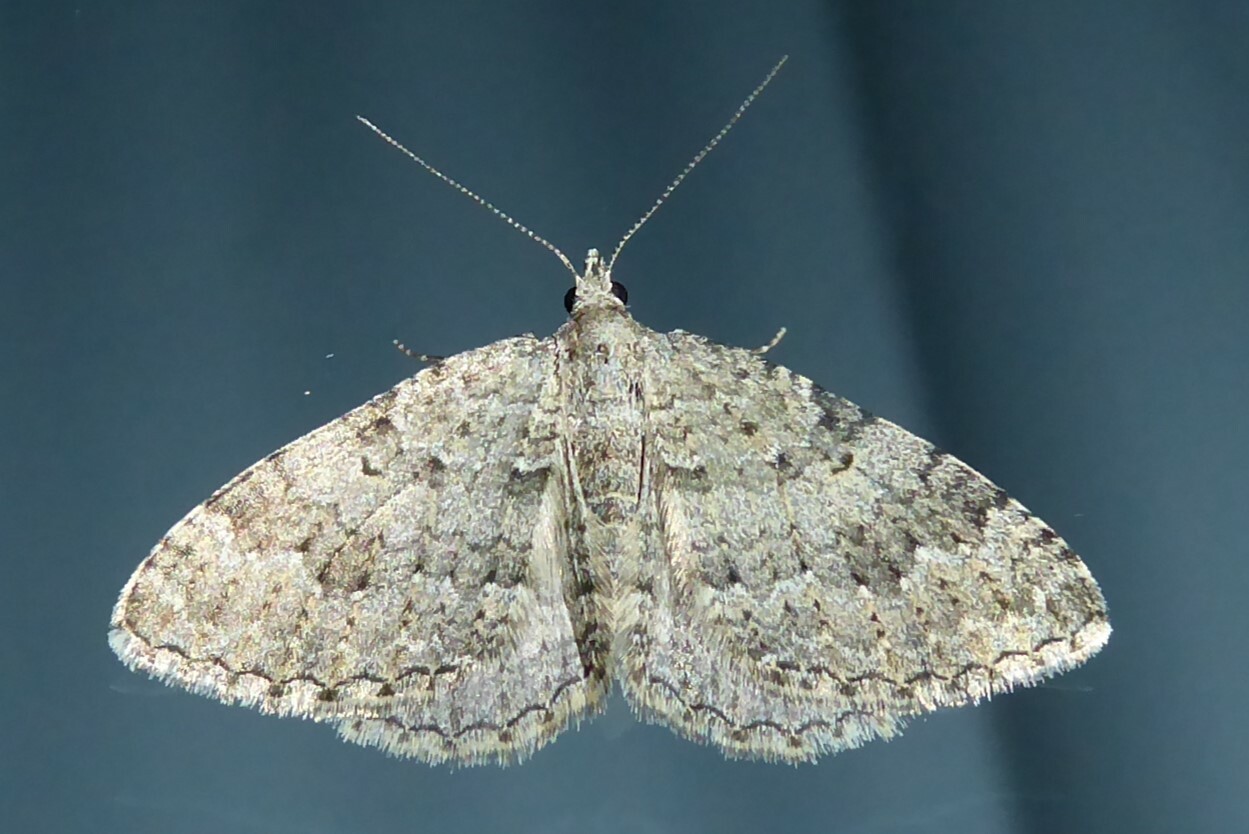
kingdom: Animalia
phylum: Arthropoda
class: Insecta
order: Lepidoptera
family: Geometridae
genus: Helastia
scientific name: Helastia corcularia
